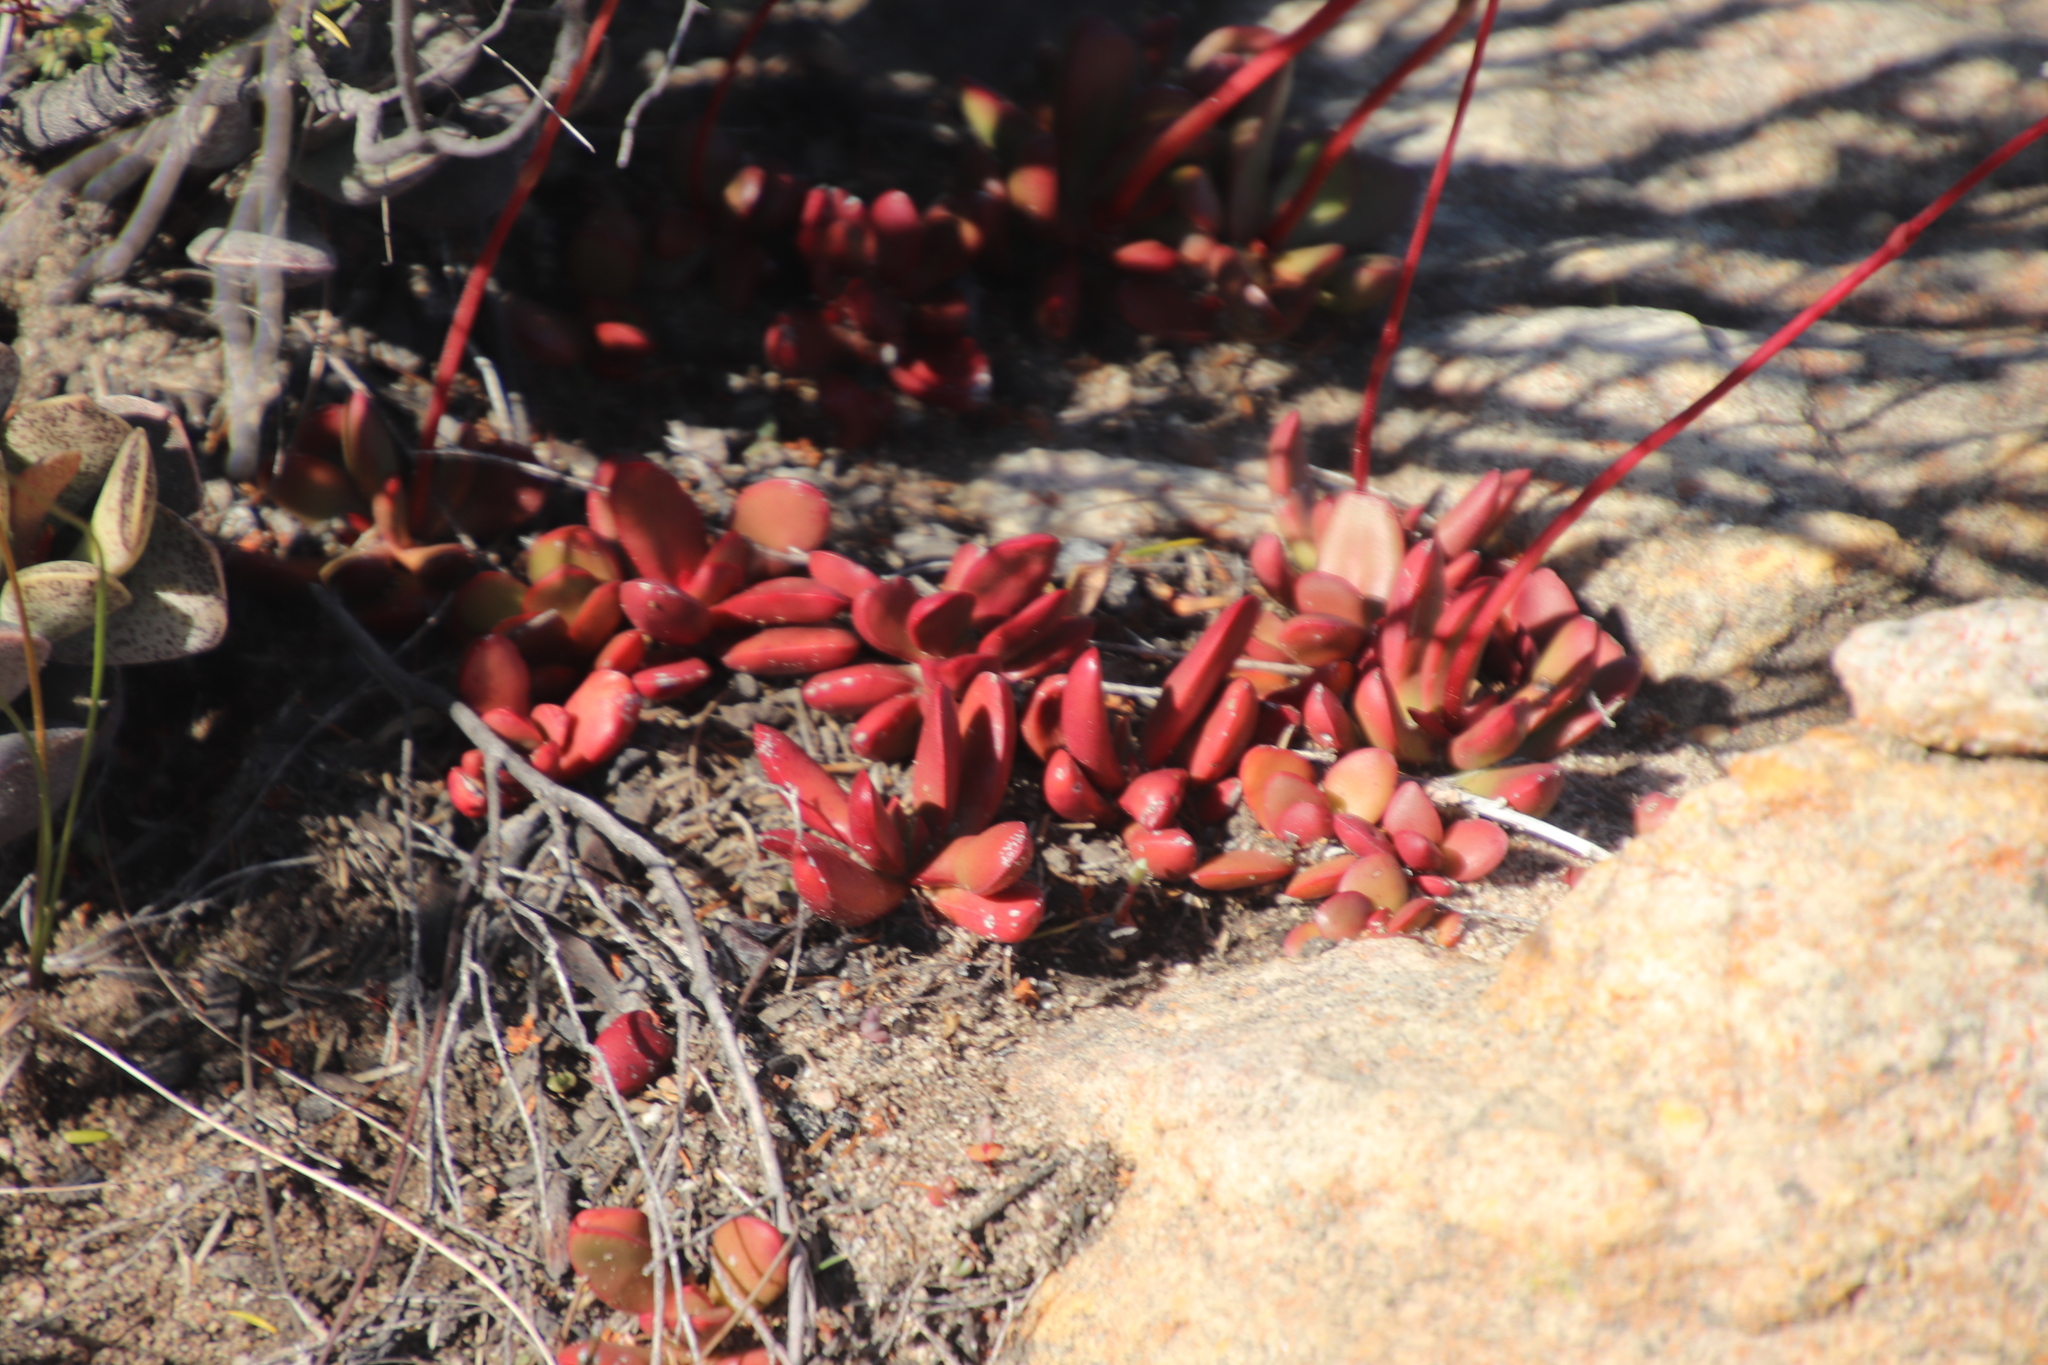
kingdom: Plantae
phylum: Tracheophyta
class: Magnoliopsida
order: Saxifragales
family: Crassulaceae
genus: Crassula
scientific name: Crassula clavata
